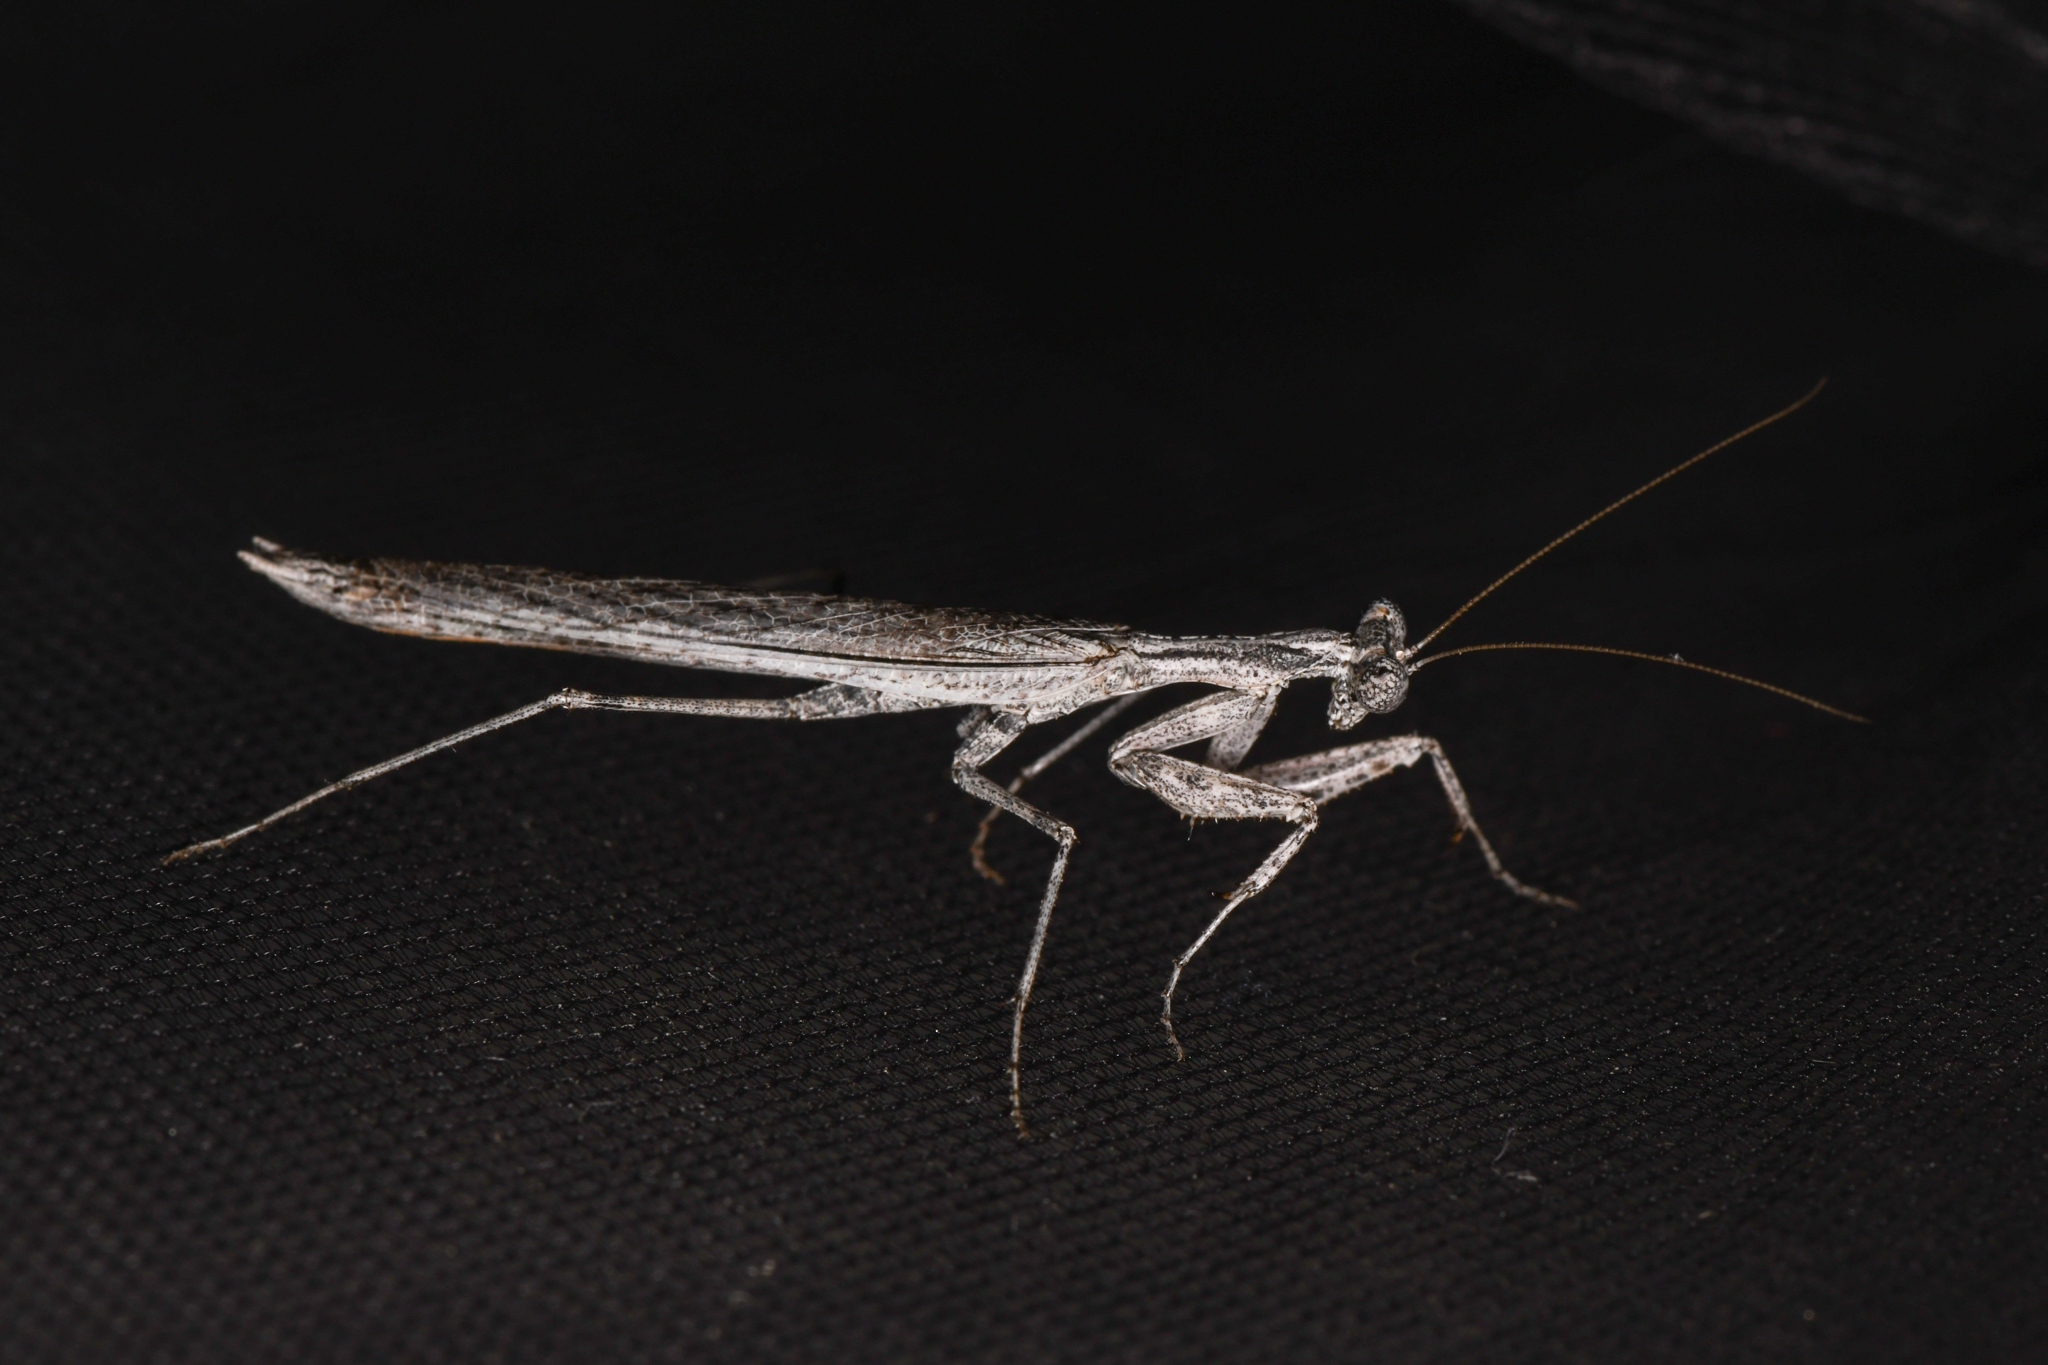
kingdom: Animalia
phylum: Arthropoda
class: Insecta
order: Mantodea
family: Amelidae
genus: Litaneutria
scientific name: Litaneutria pacifica
